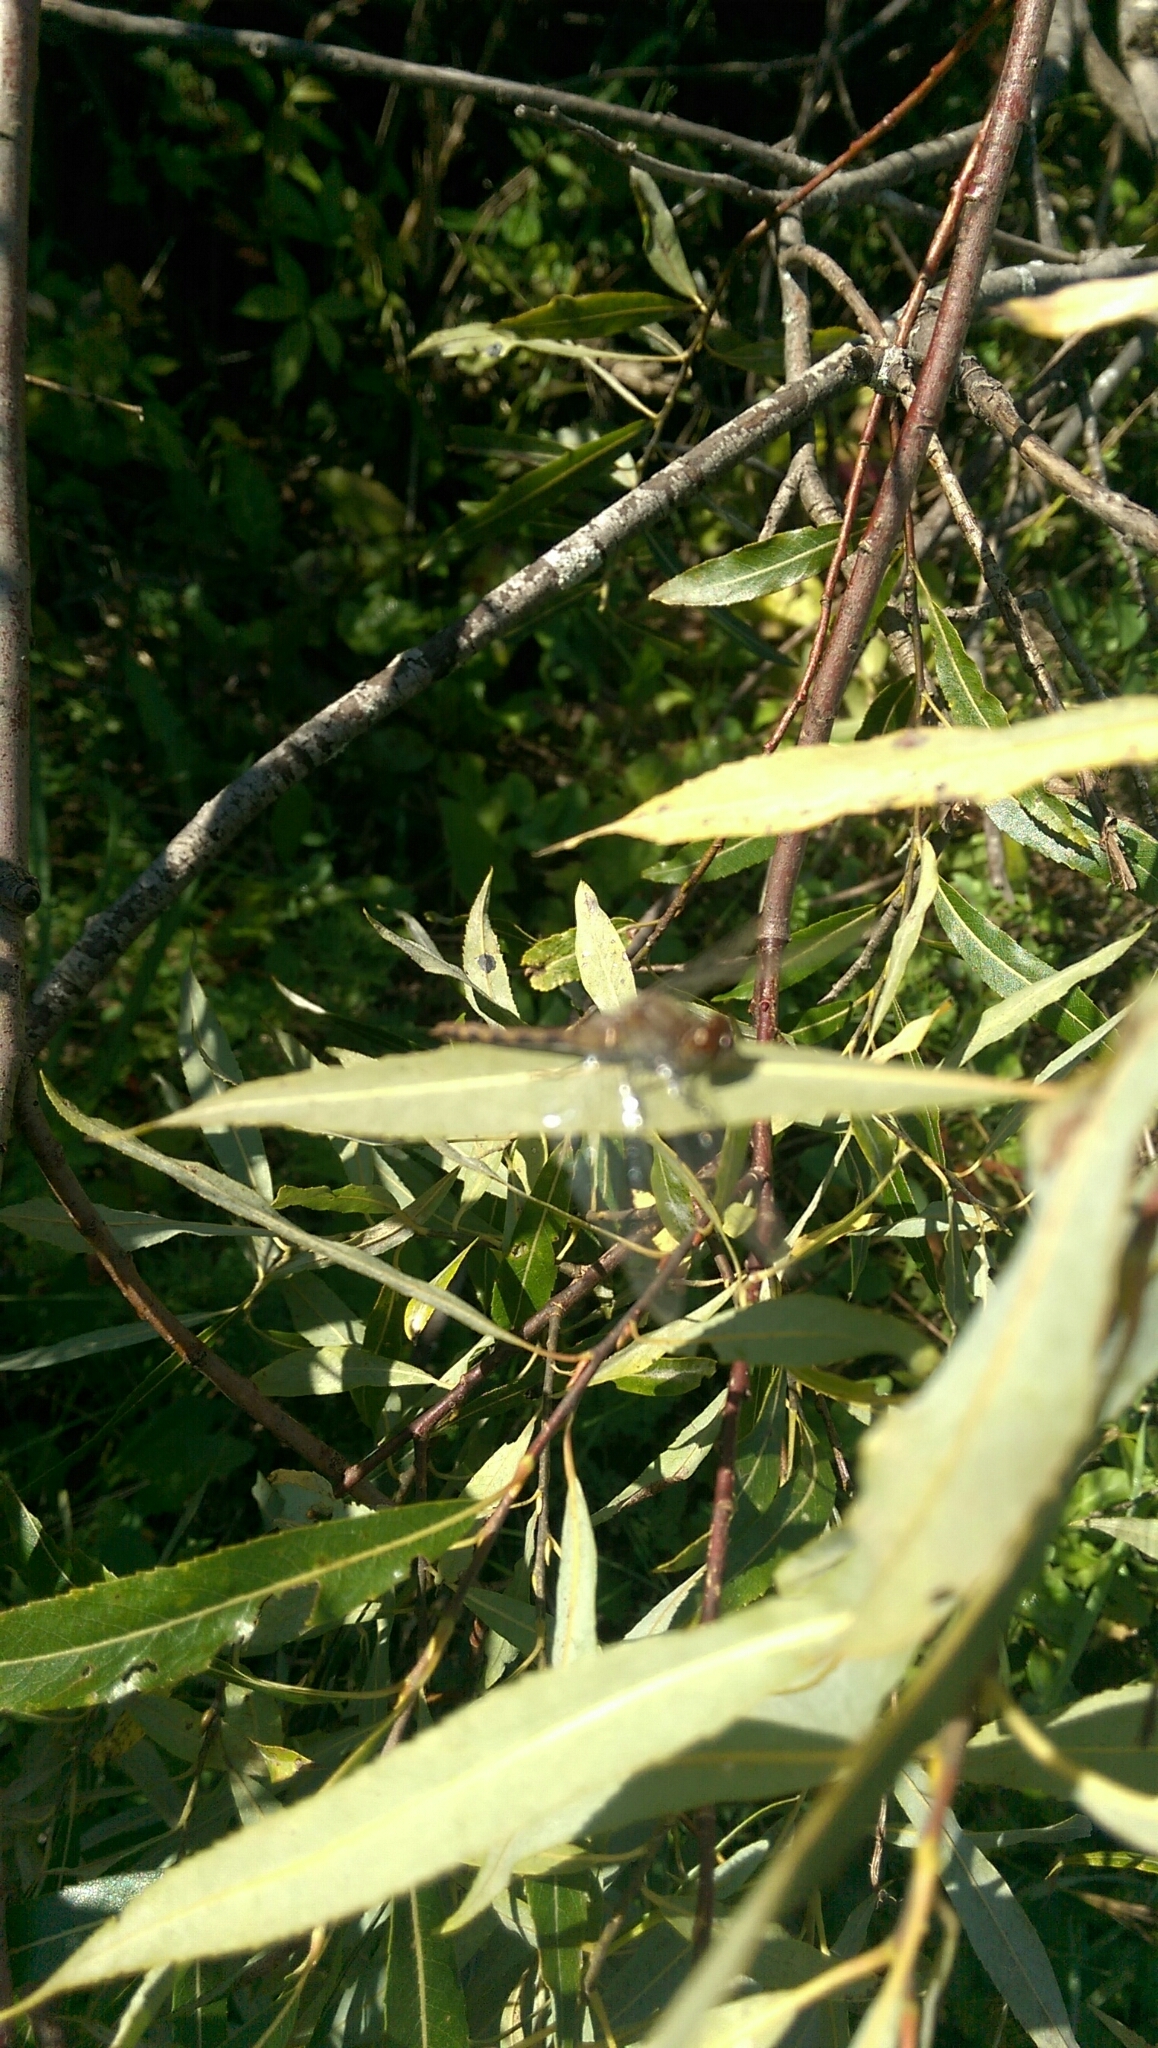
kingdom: Animalia
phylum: Arthropoda
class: Insecta
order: Odonata
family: Libellulidae
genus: Sympetrum
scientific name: Sympetrum
